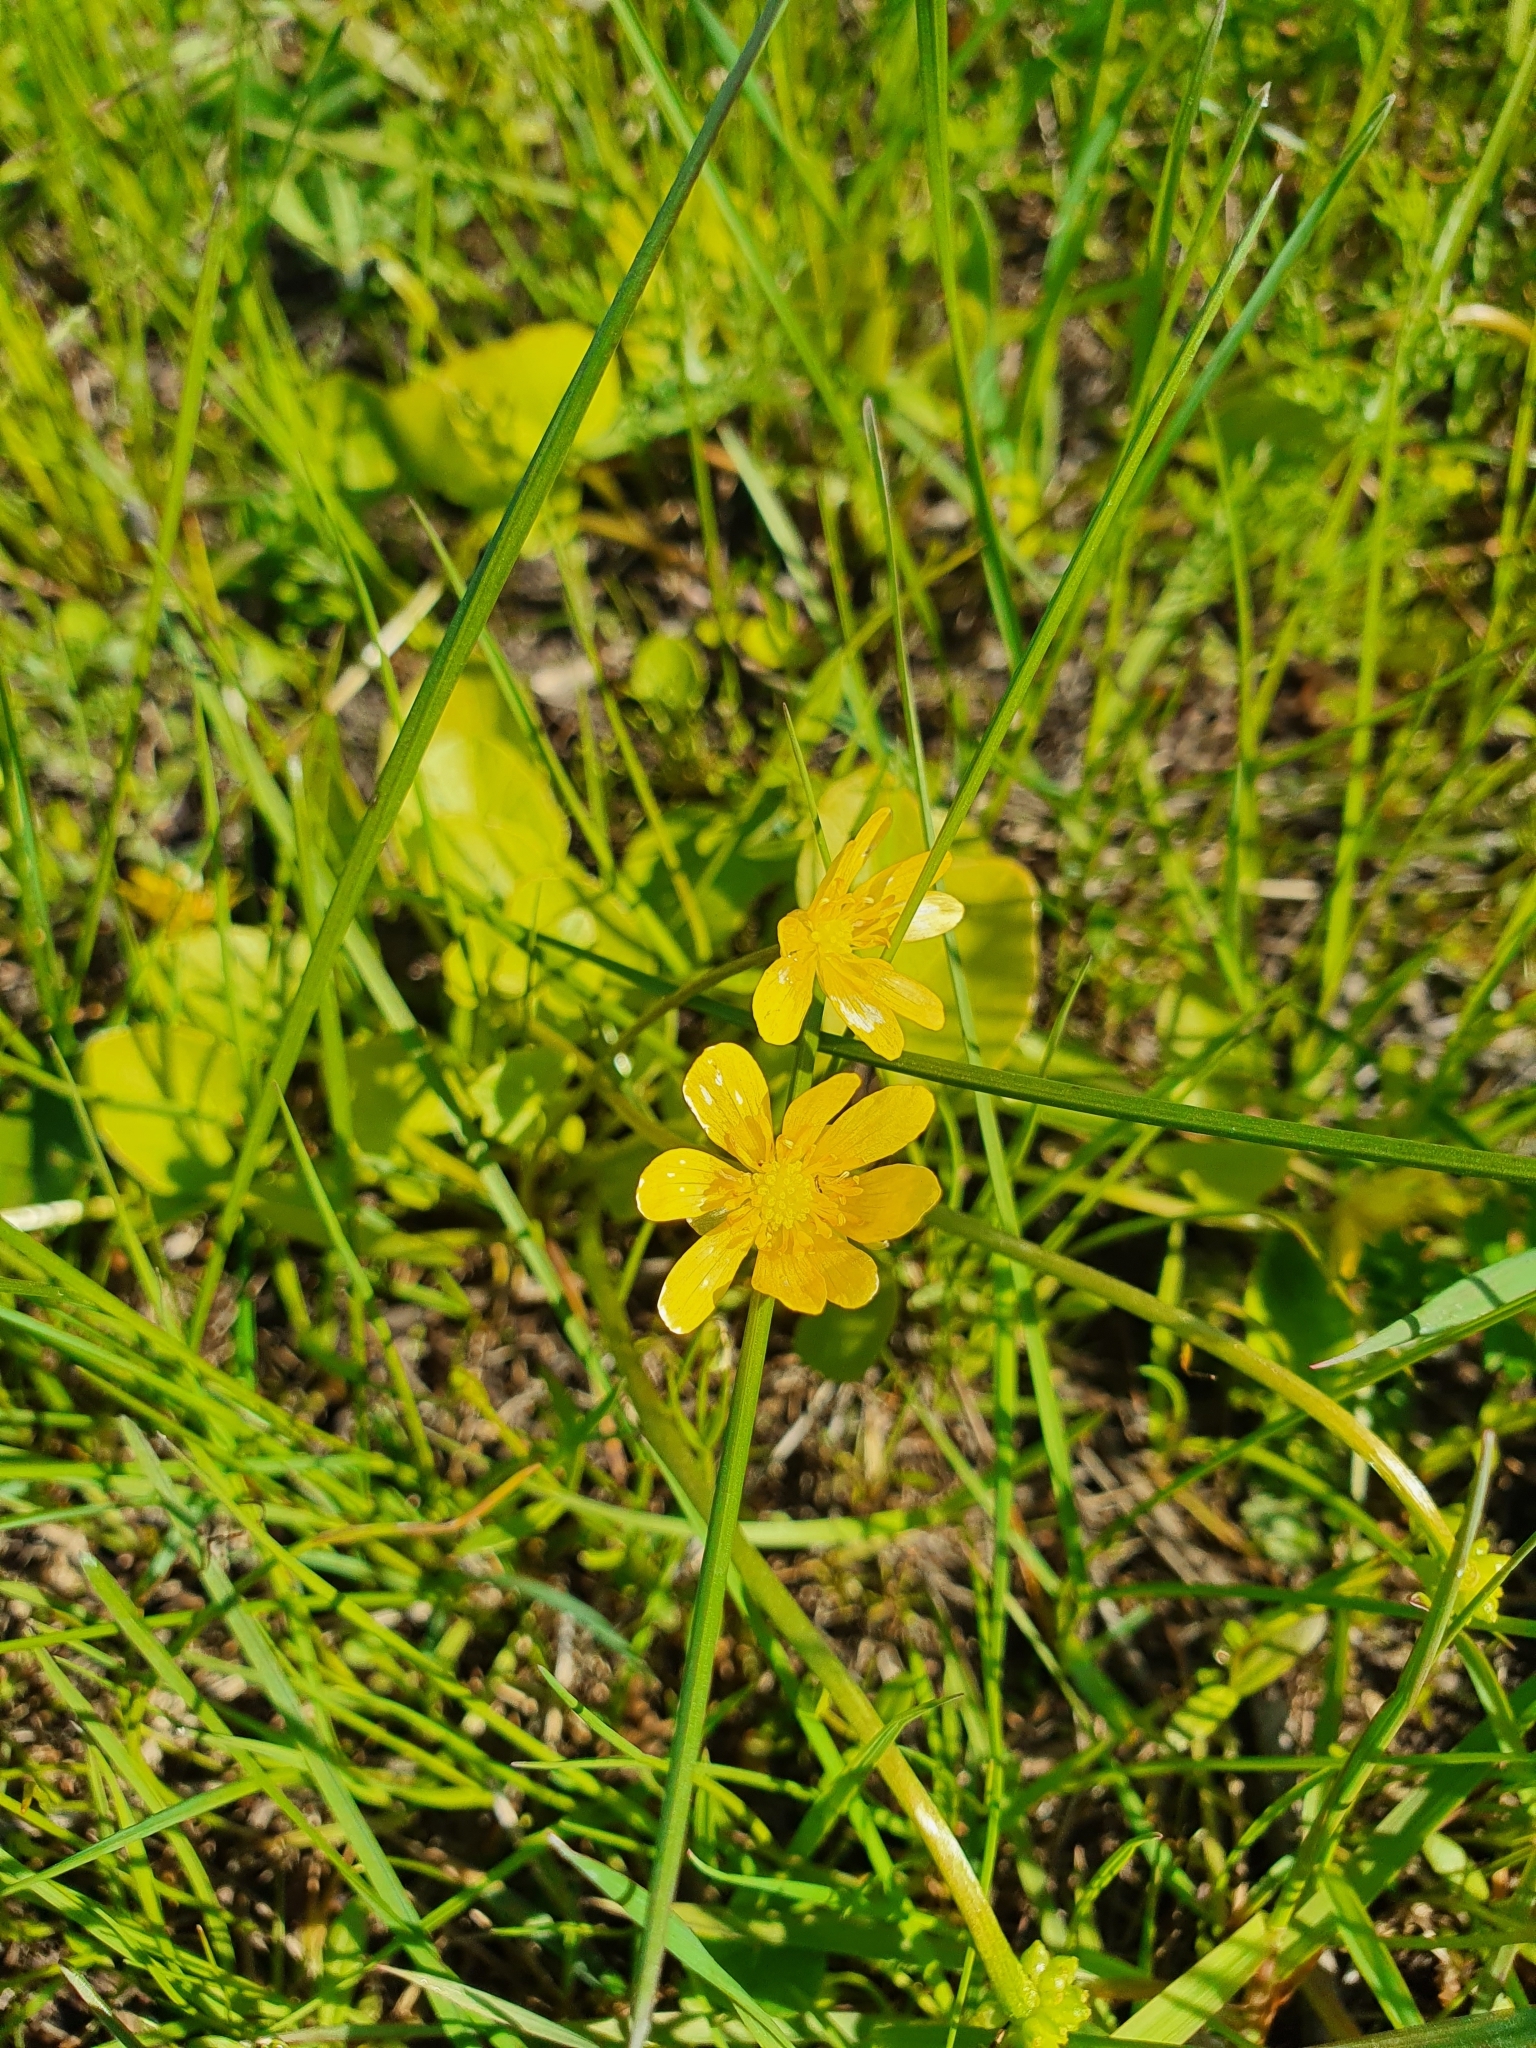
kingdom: Plantae
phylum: Tracheophyta
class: Magnoliopsida
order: Ranunculales
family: Ranunculaceae
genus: Ficaria
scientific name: Ficaria verna
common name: Lesser celandine
